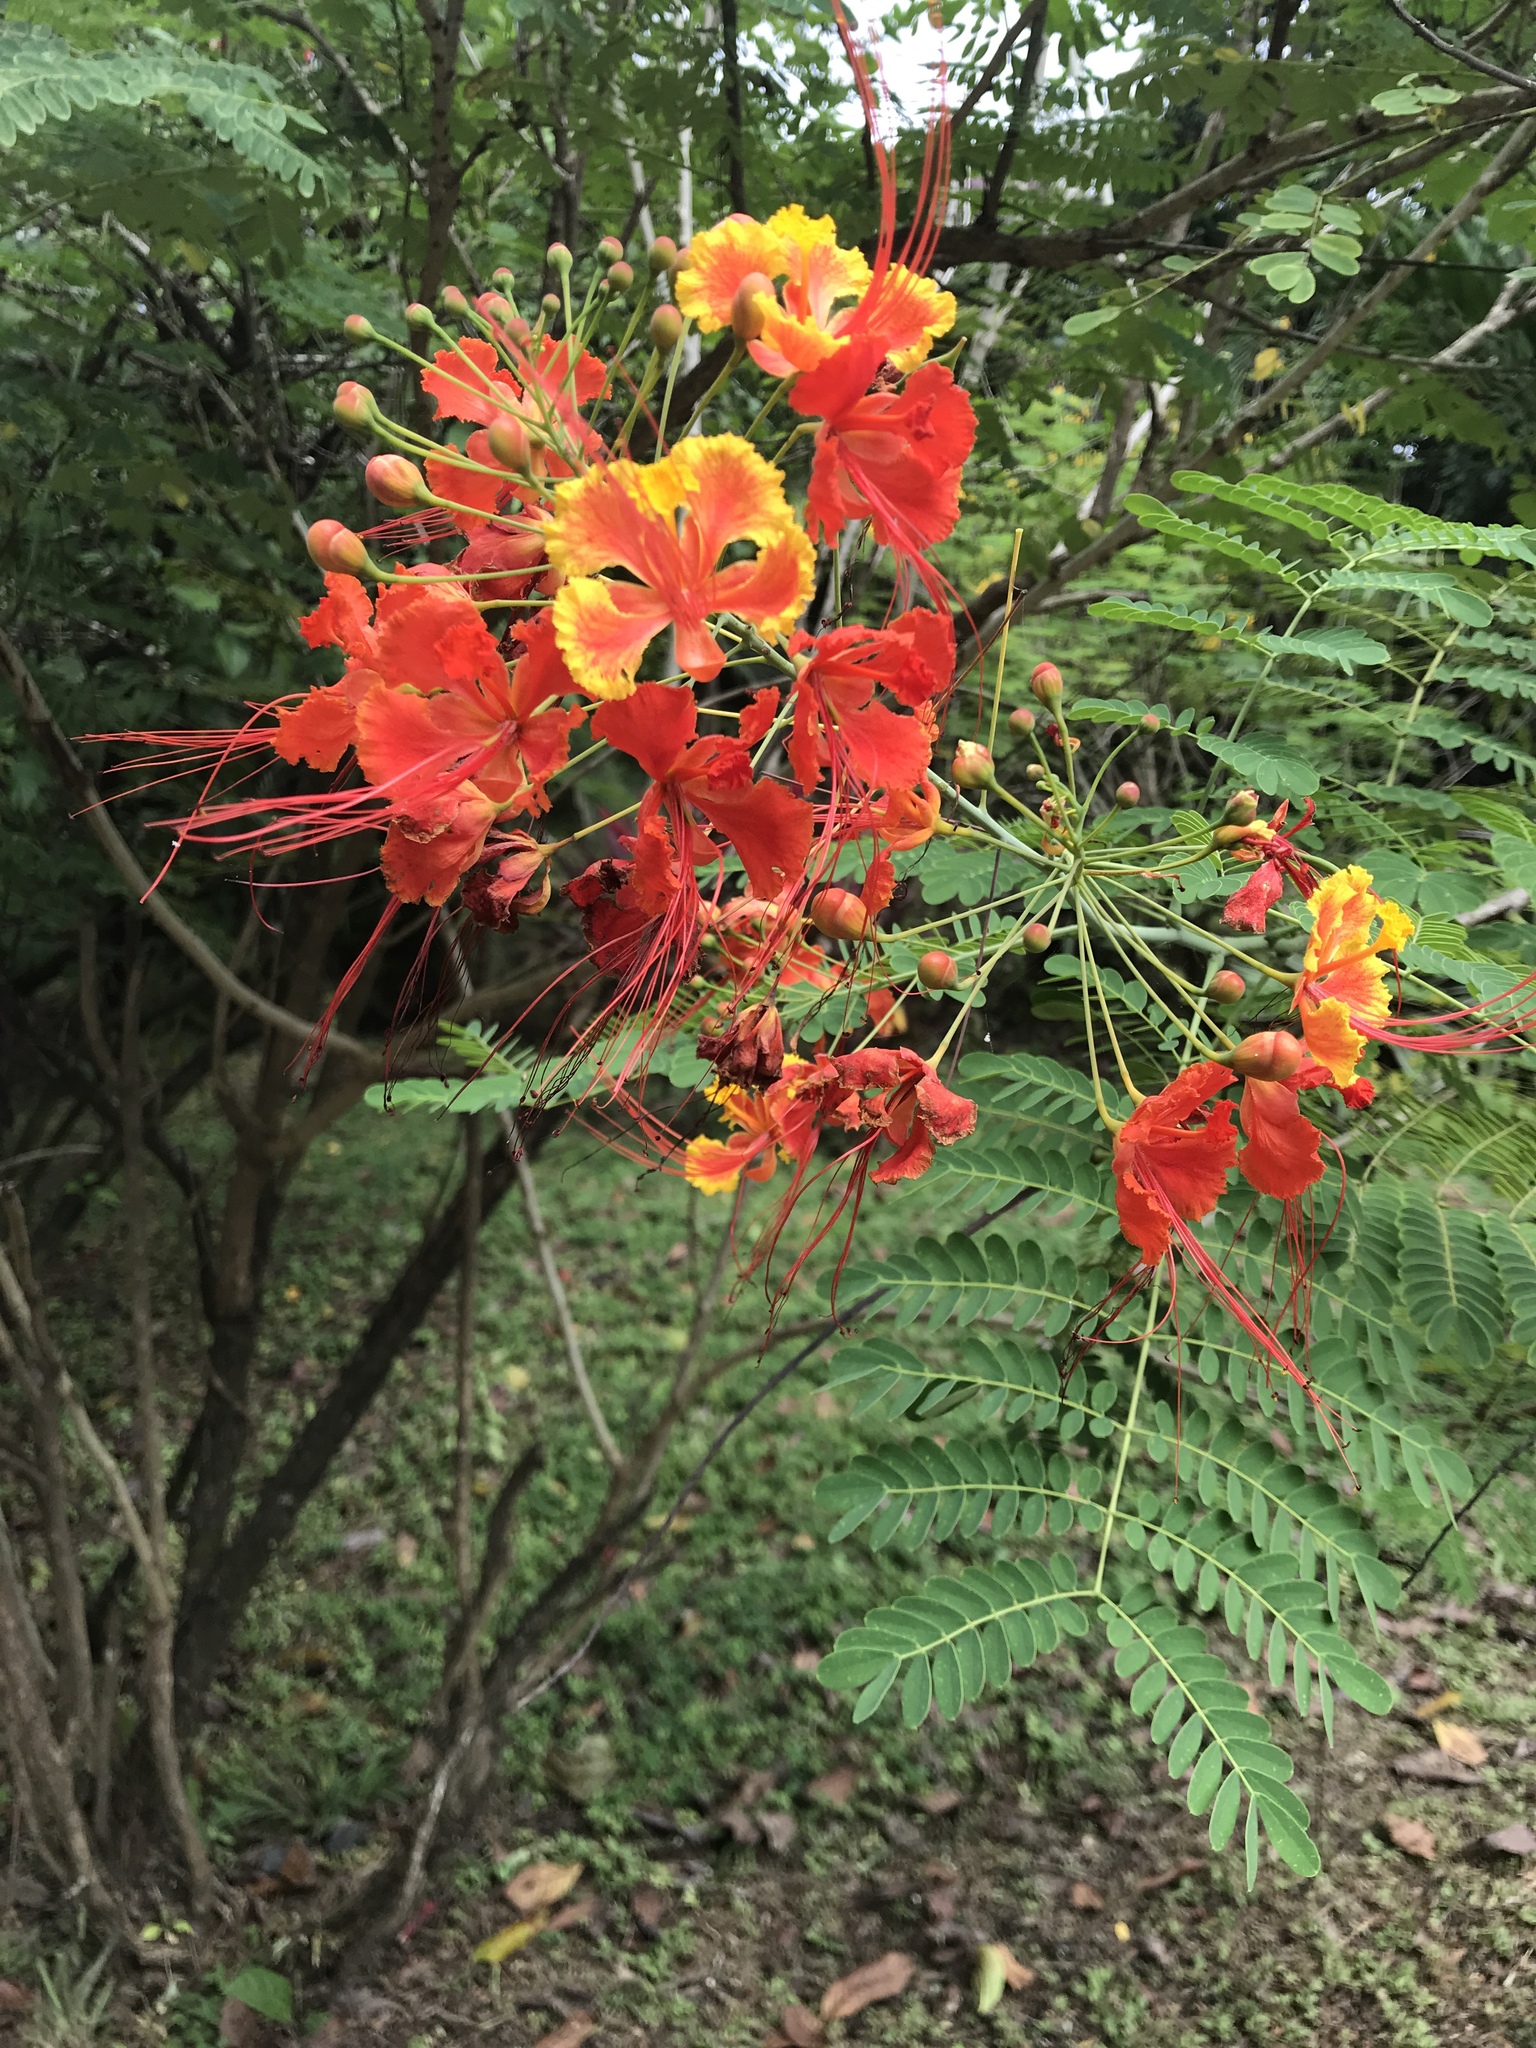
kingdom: Plantae
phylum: Tracheophyta
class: Magnoliopsida
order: Fabales
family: Fabaceae
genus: Caesalpinia
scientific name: Caesalpinia pulcherrima
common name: Pride-of-barbados
